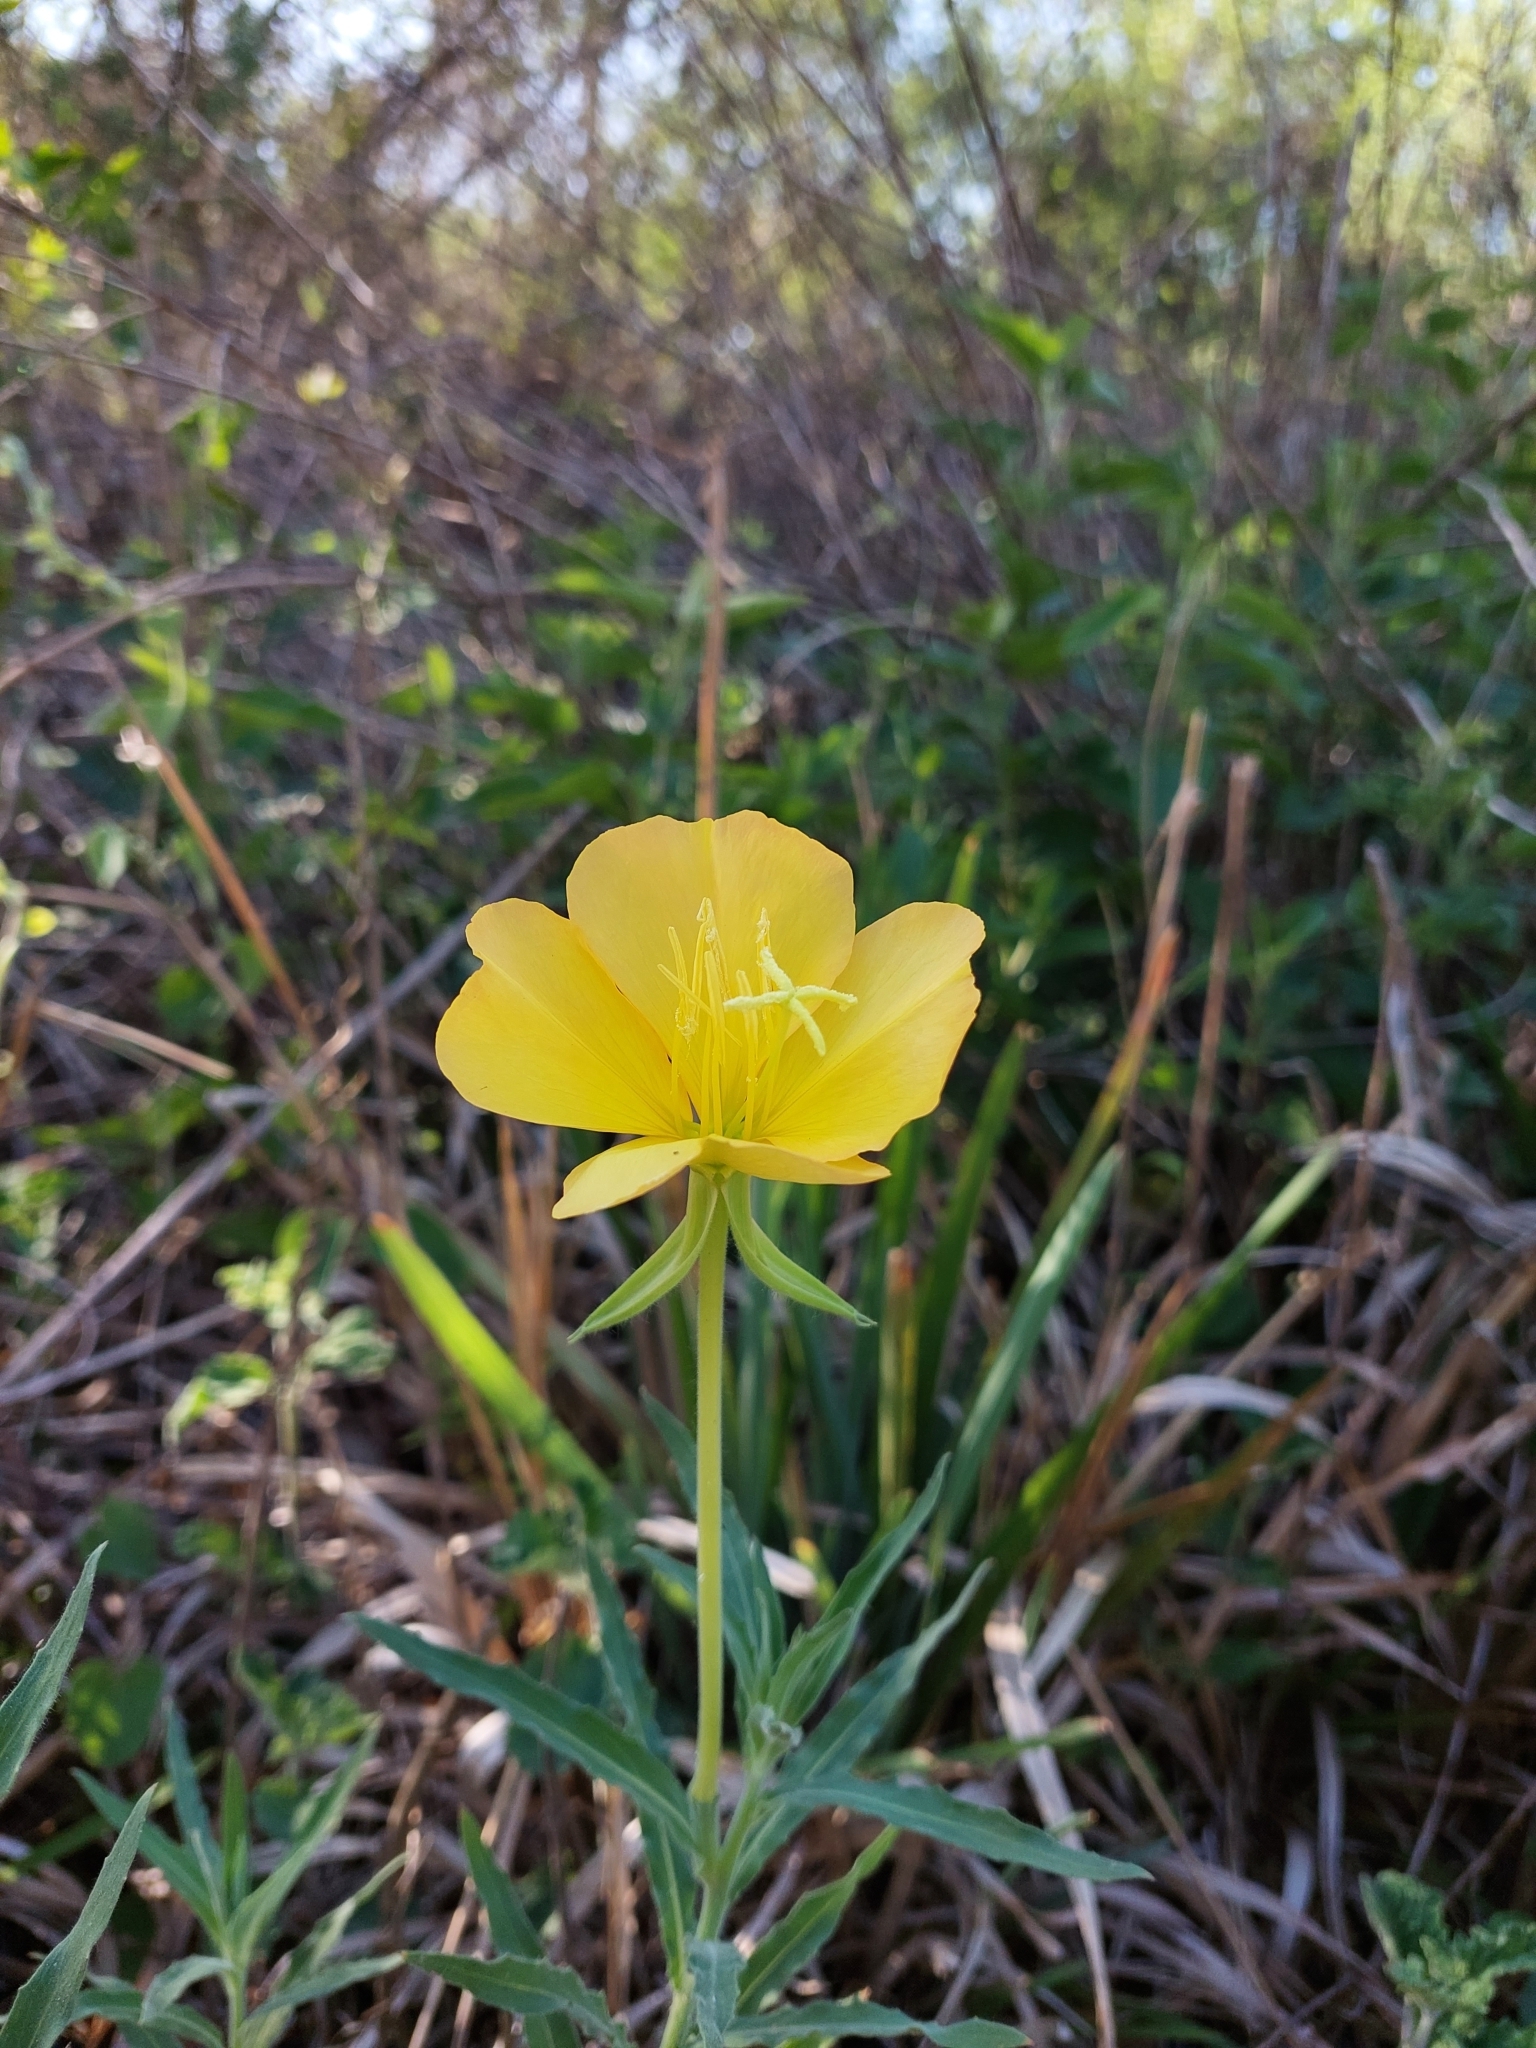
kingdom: Plantae
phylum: Tracheophyta
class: Magnoliopsida
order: Myrtales
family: Onagraceae
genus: Oenothera
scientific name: Oenothera affinis
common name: Longflower evening primrose
